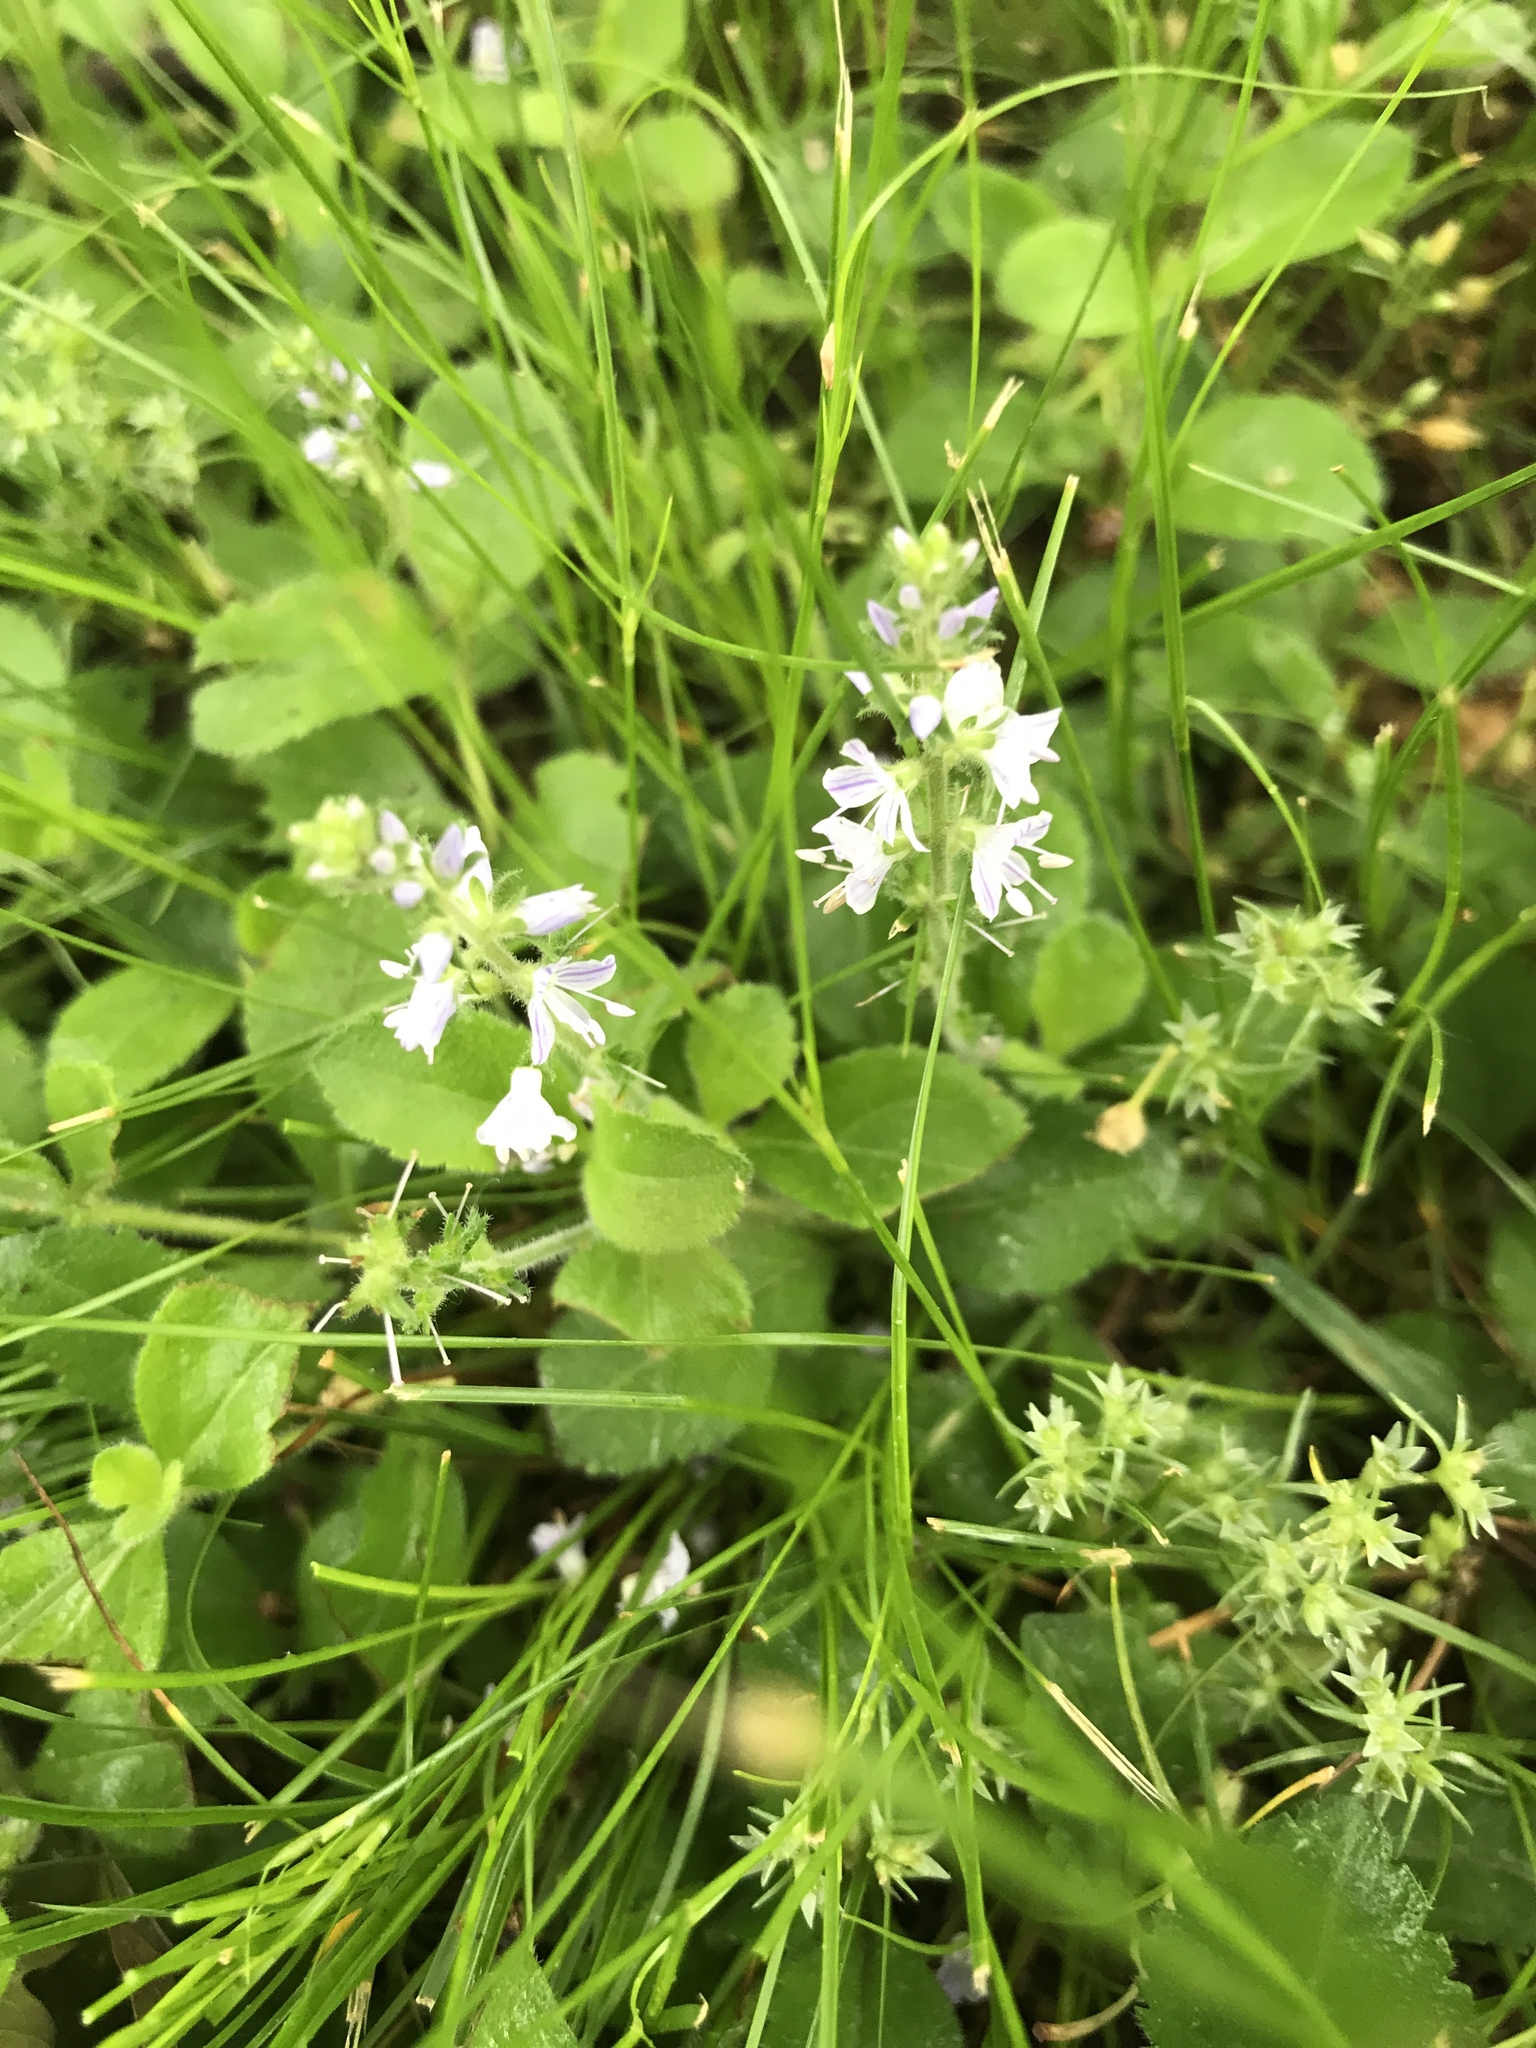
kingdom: Plantae
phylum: Tracheophyta
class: Magnoliopsida
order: Lamiales
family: Plantaginaceae
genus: Veronica
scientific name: Veronica officinalis
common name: Common speedwell
